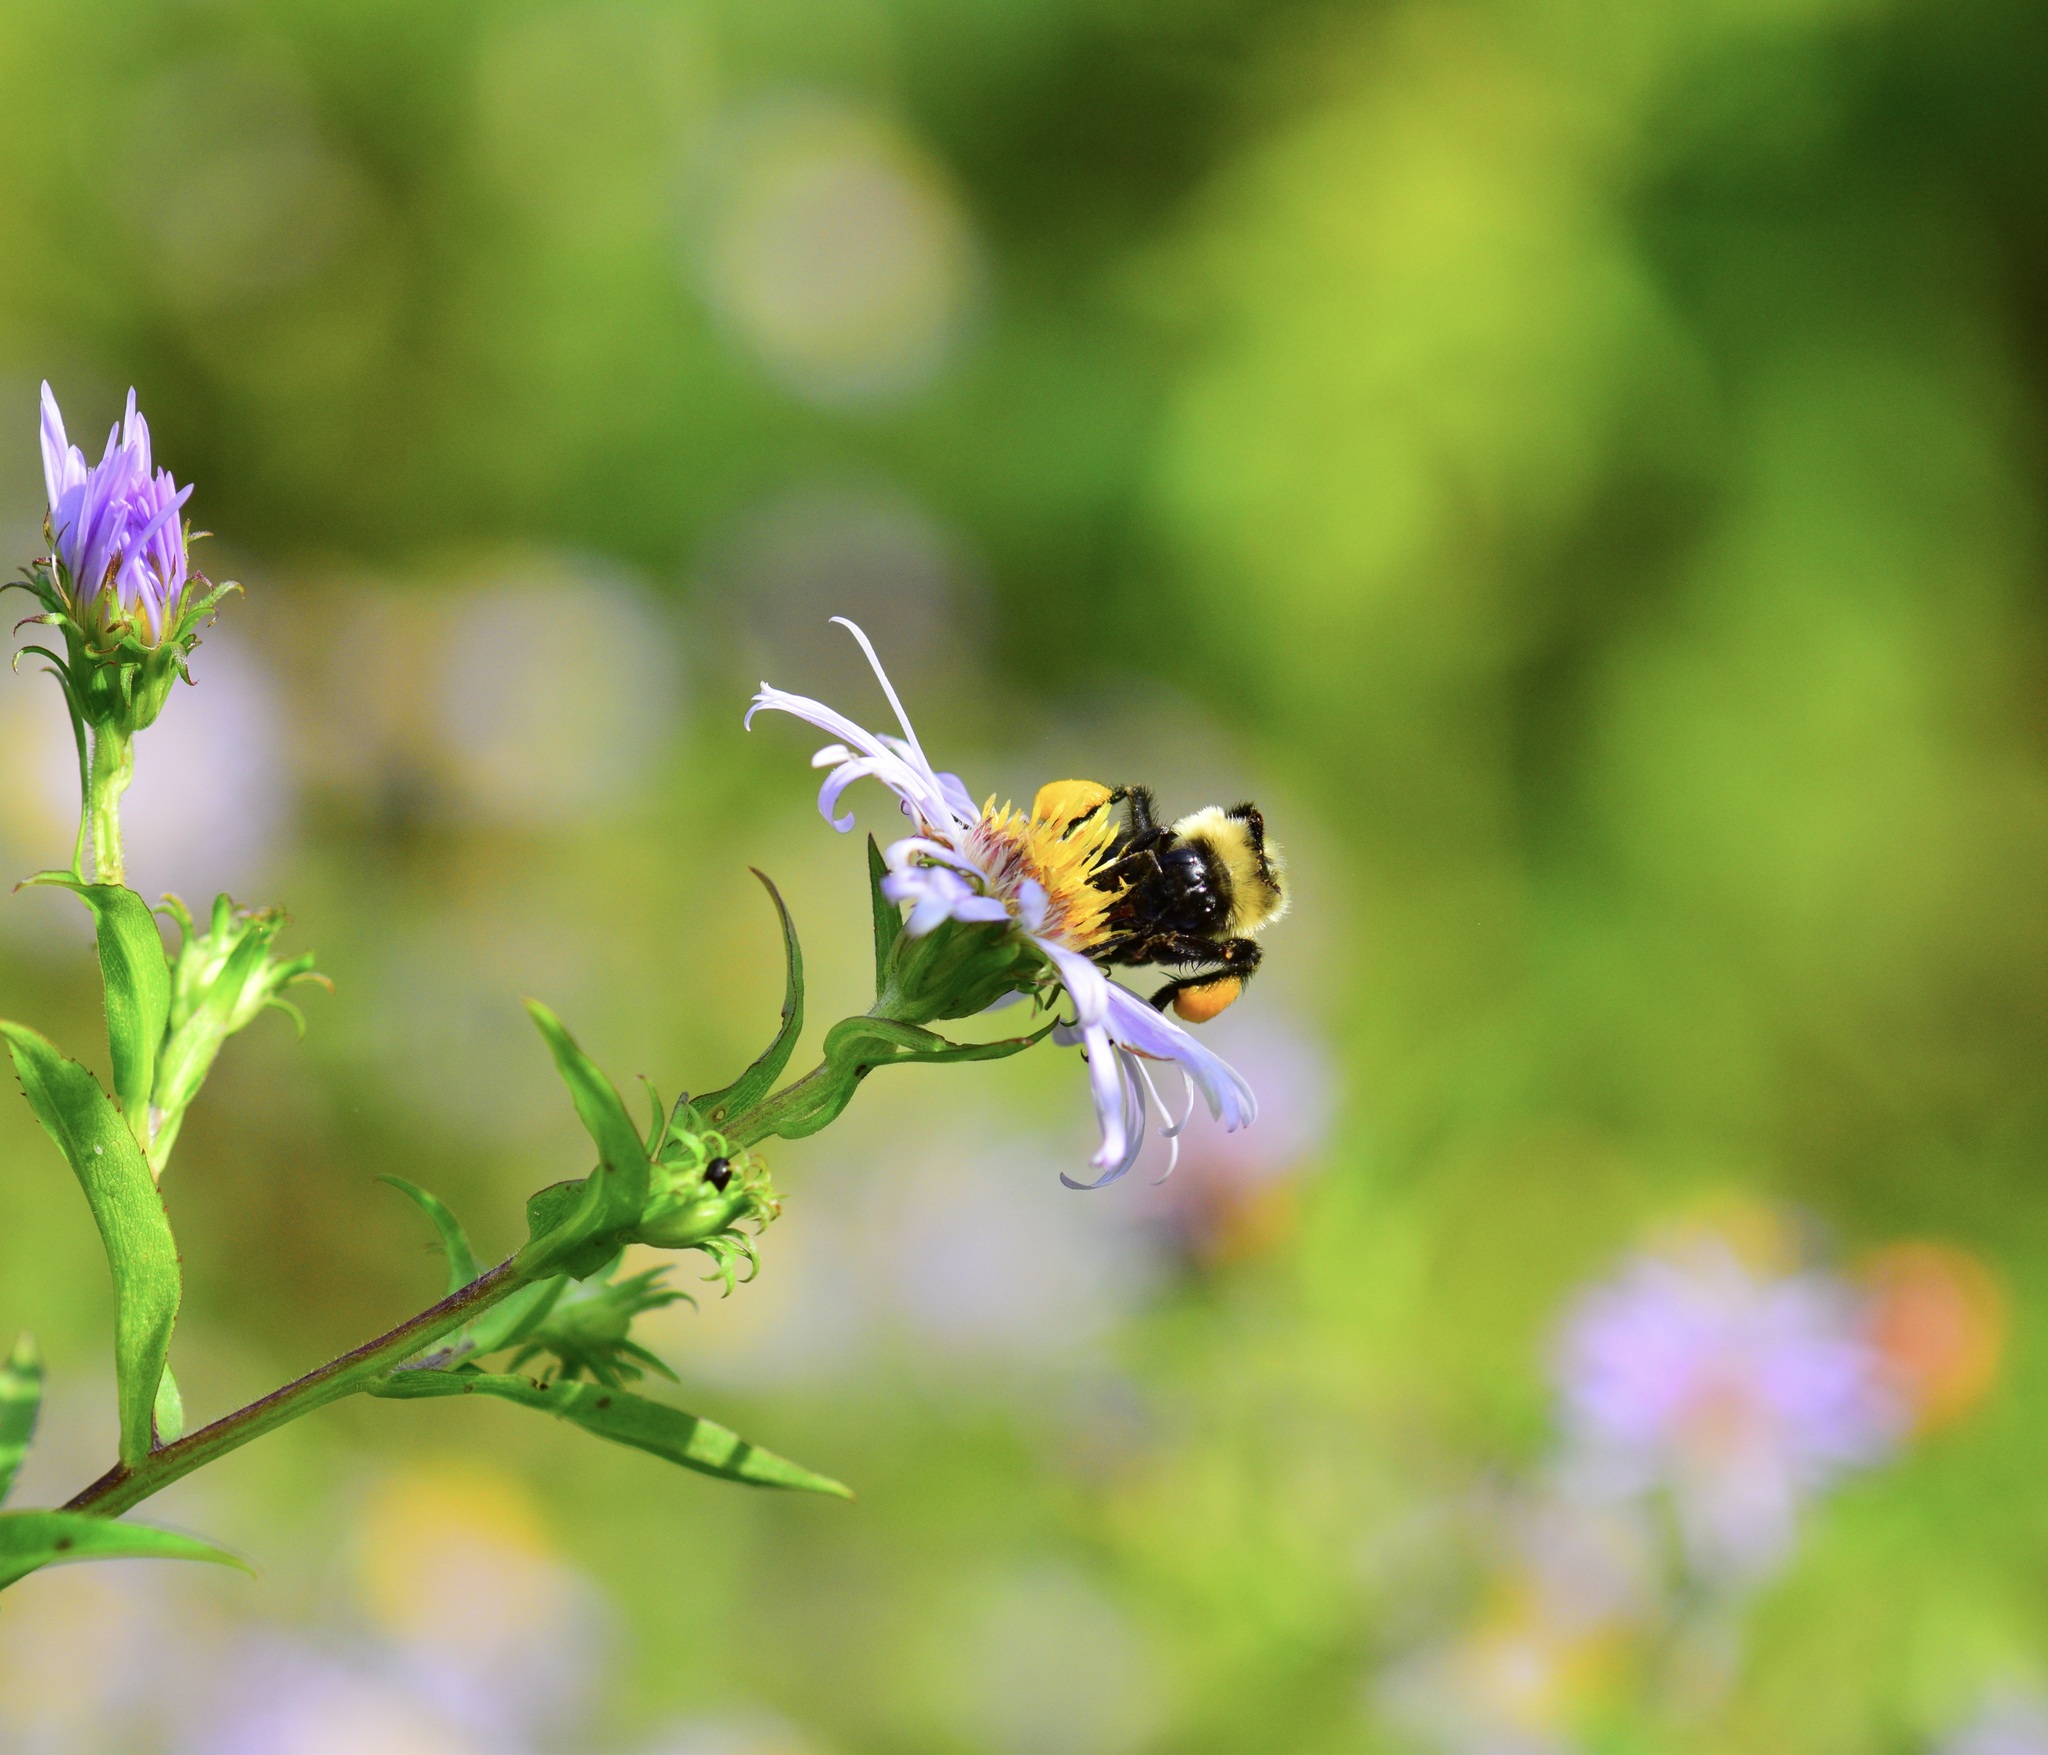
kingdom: Animalia
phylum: Arthropoda
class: Insecta
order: Hymenoptera
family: Apidae
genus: Bombus
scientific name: Bombus impatiens
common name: Common eastern bumble bee
